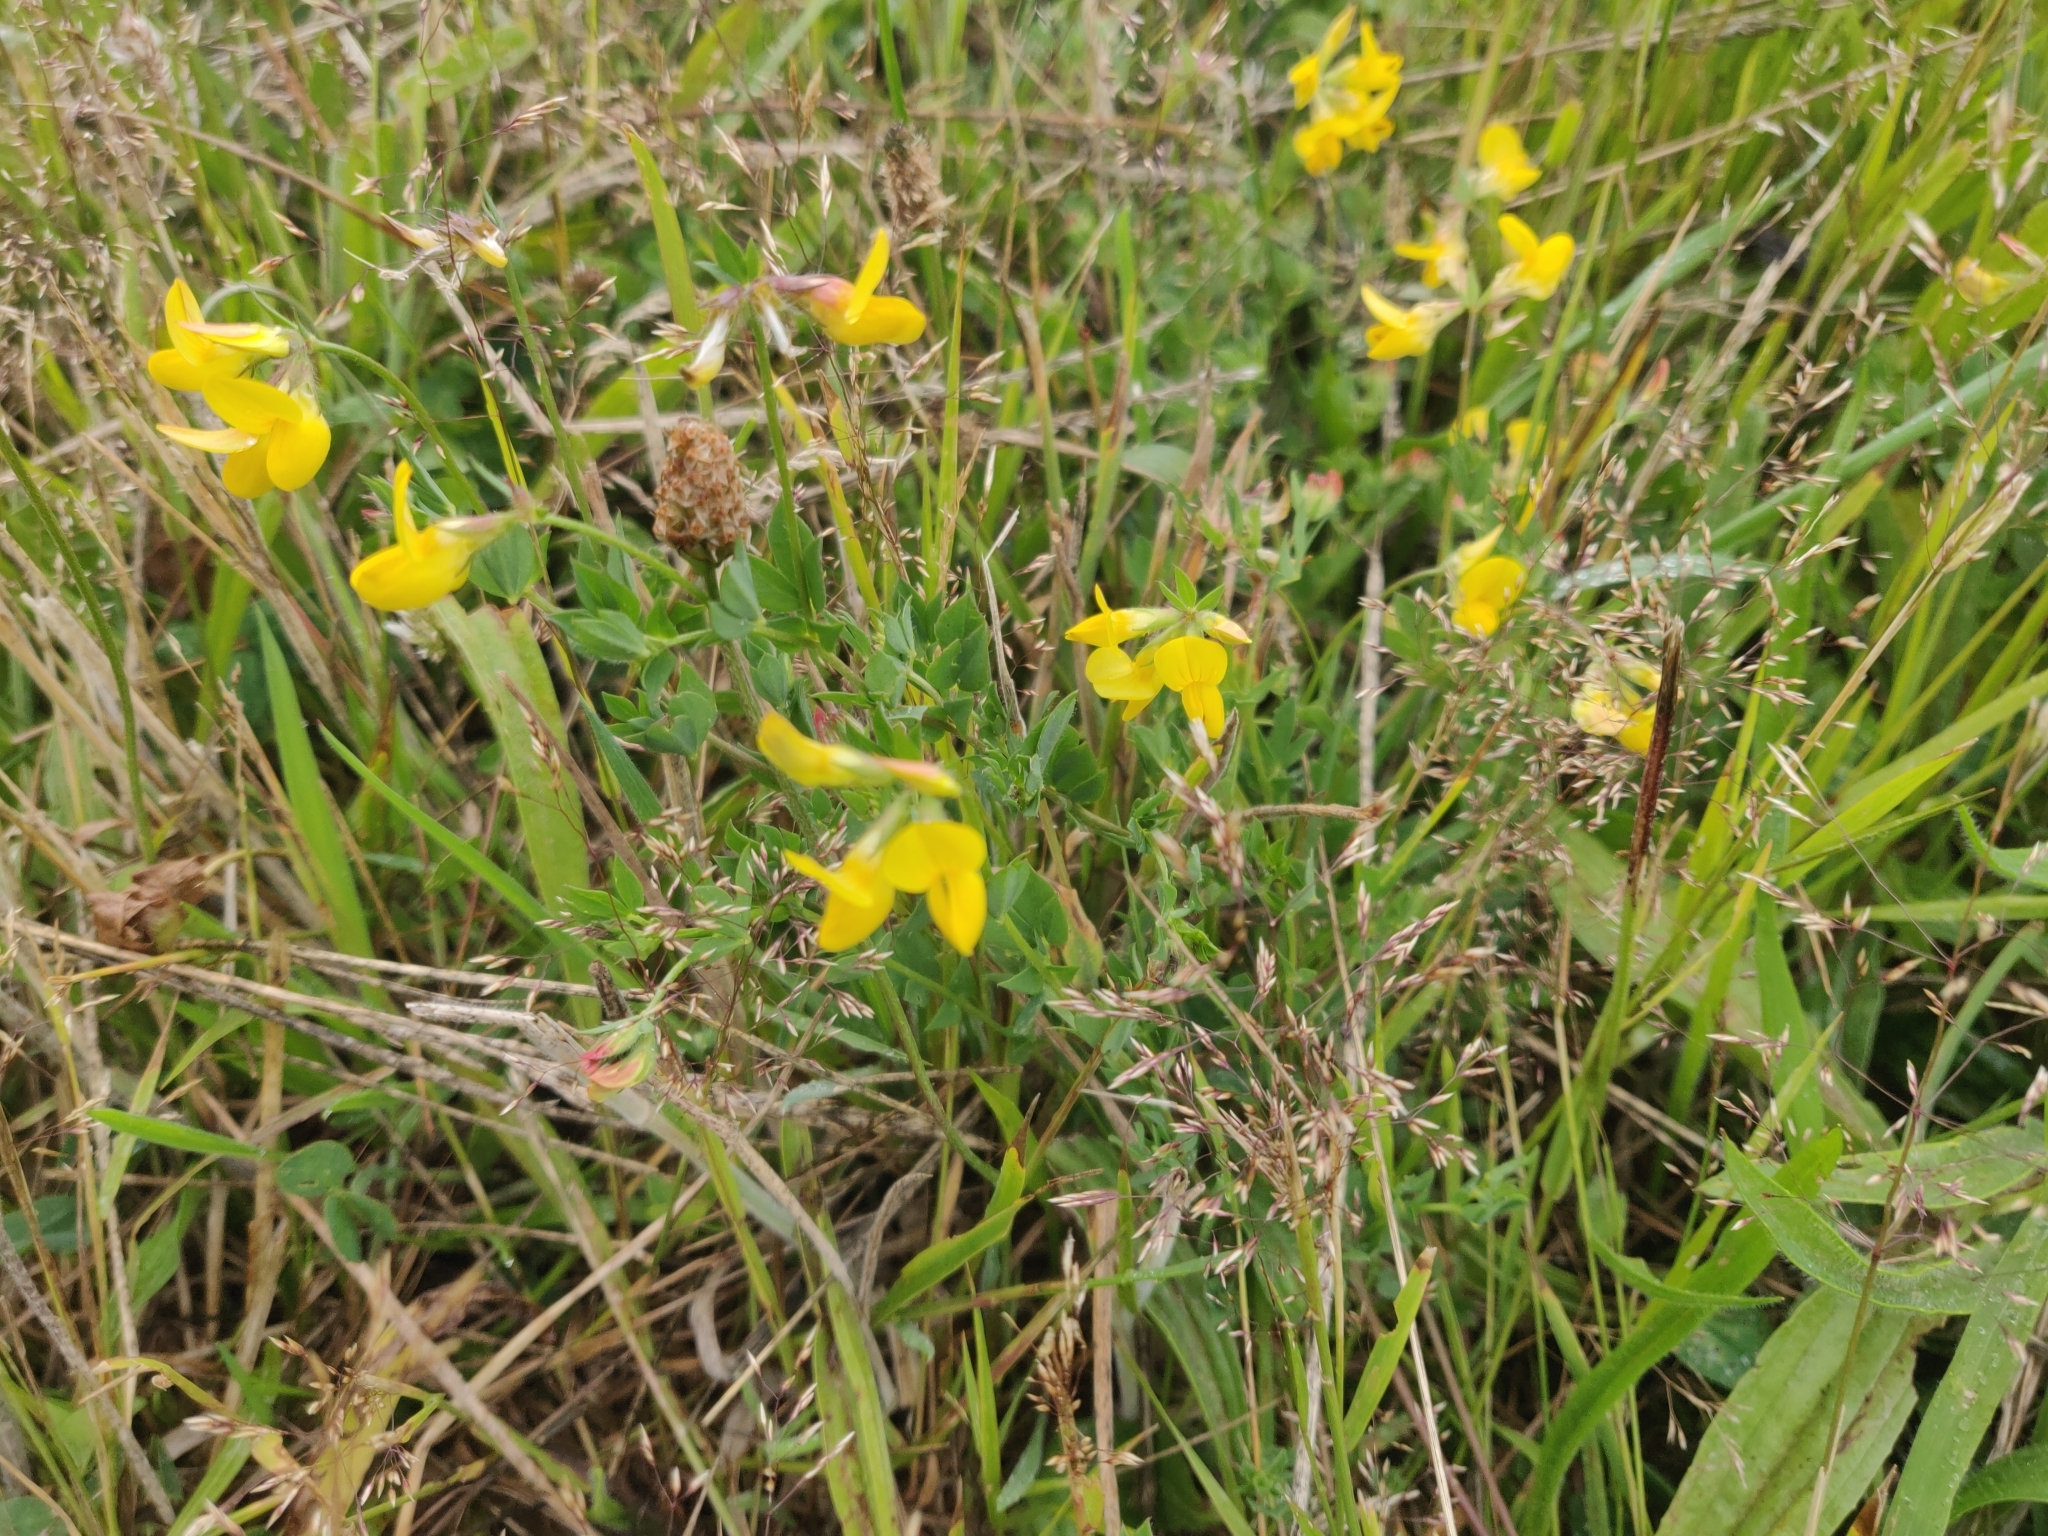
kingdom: Plantae
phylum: Tracheophyta
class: Magnoliopsida
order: Fabales
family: Fabaceae
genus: Lotus
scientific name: Lotus corniculatus
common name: Common bird's-foot-trefoil
